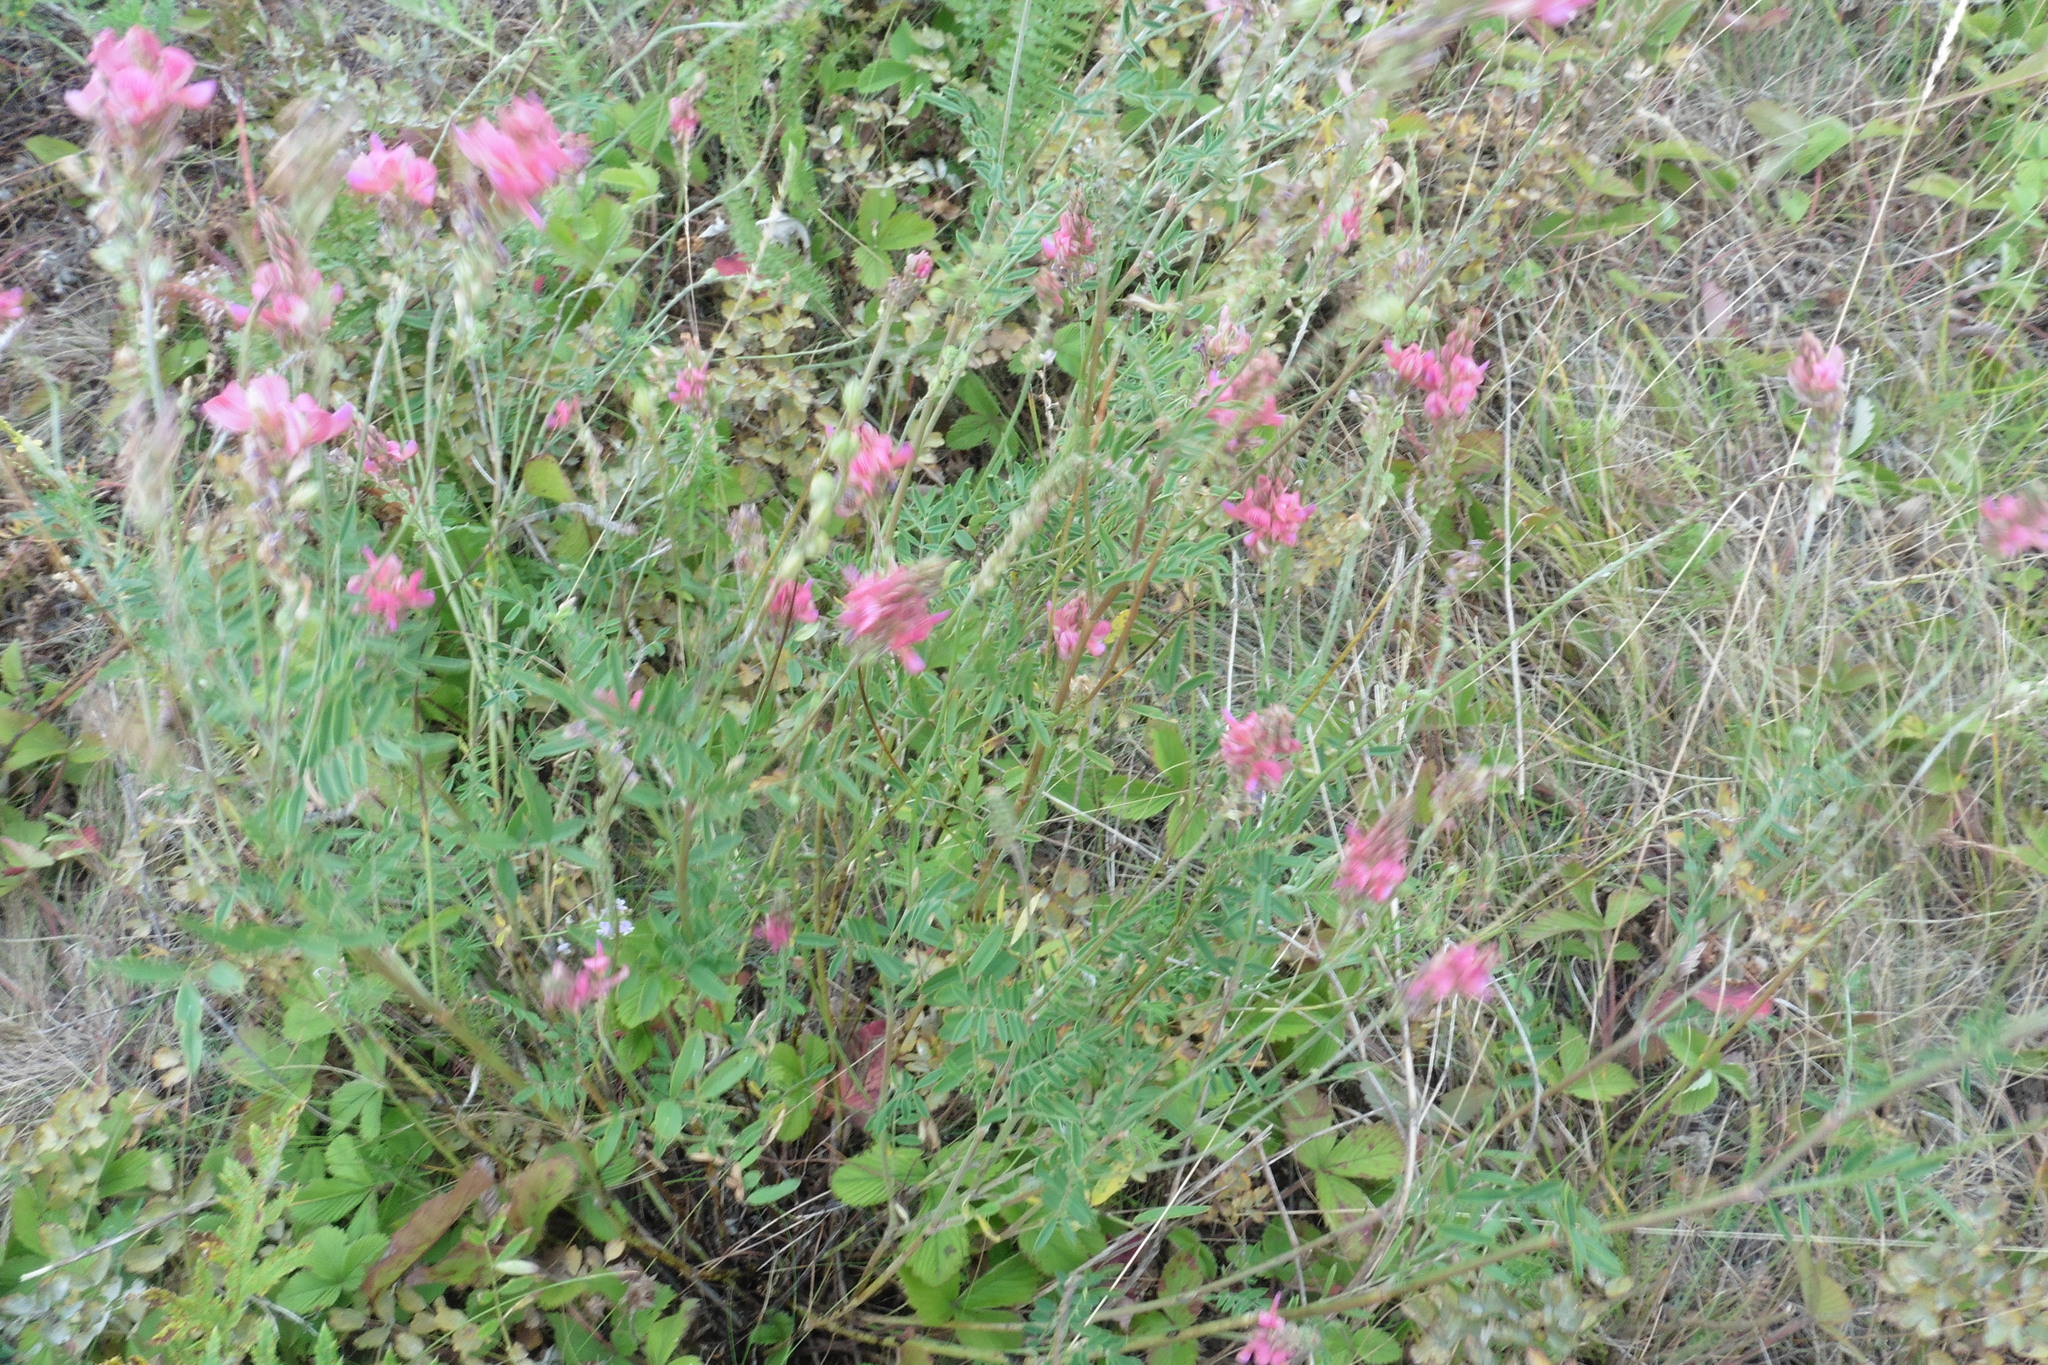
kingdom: Plantae
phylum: Tracheophyta
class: Magnoliopsida
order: Fabales
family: Fabaceae
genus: Onobrychis
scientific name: Onobrychis viciifolia
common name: Sainfoin
